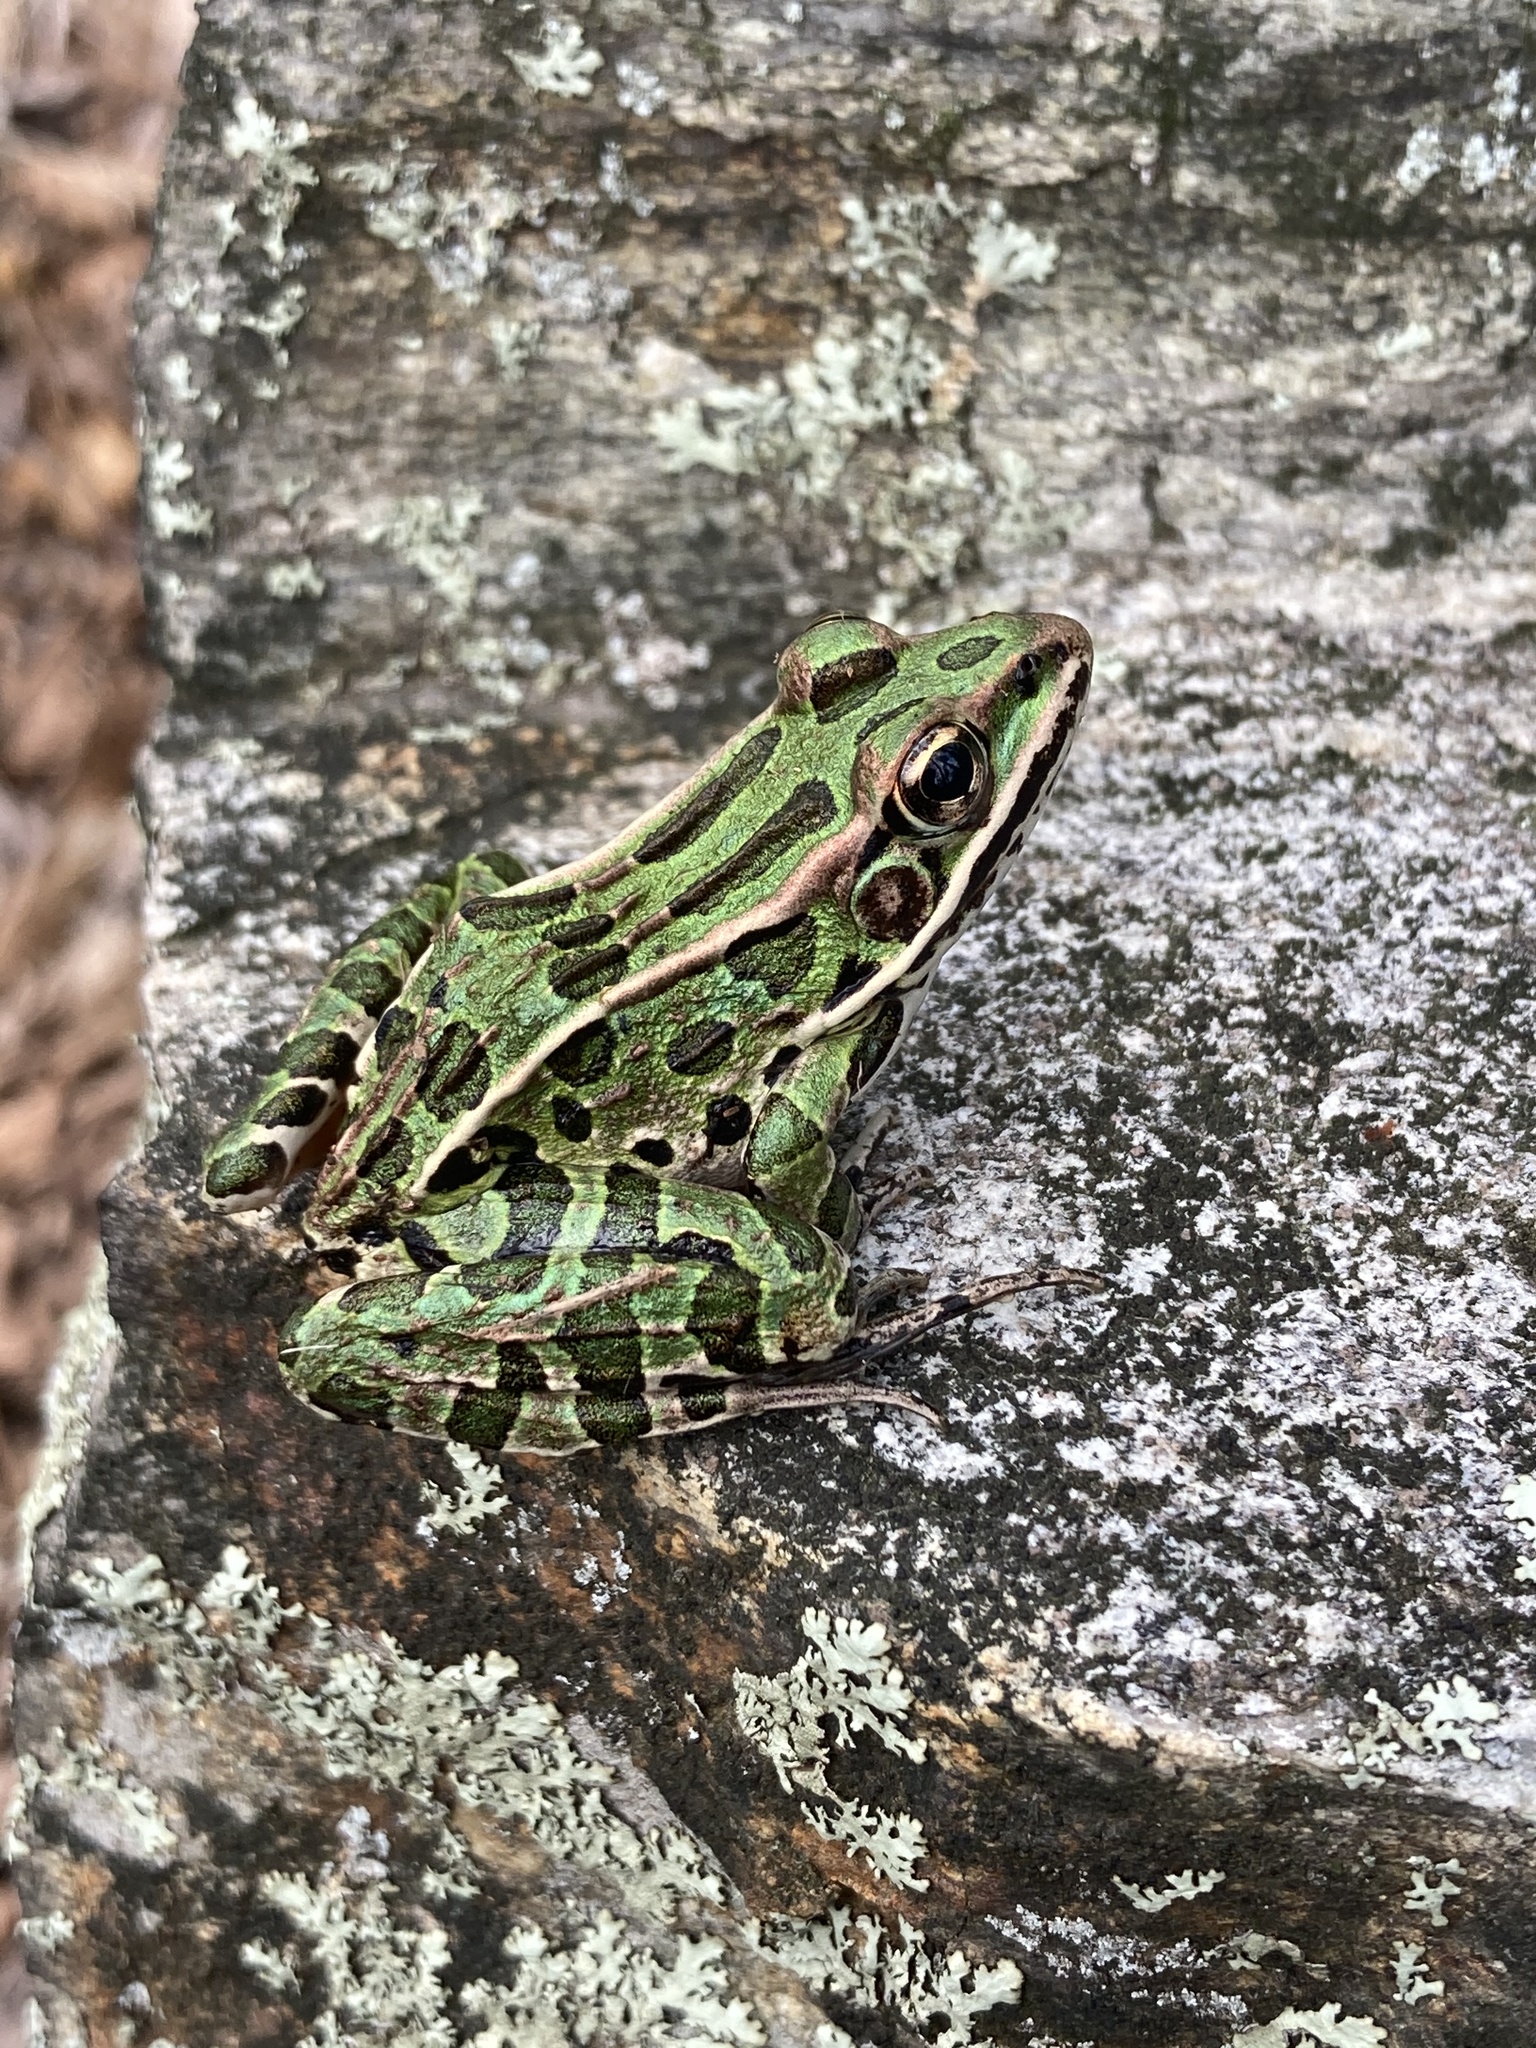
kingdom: Animalia
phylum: Chordata
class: Amphibia
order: Anura
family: Ranidae
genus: Lithobates
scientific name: Lithobates pipiens
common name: Northern leopard frog
